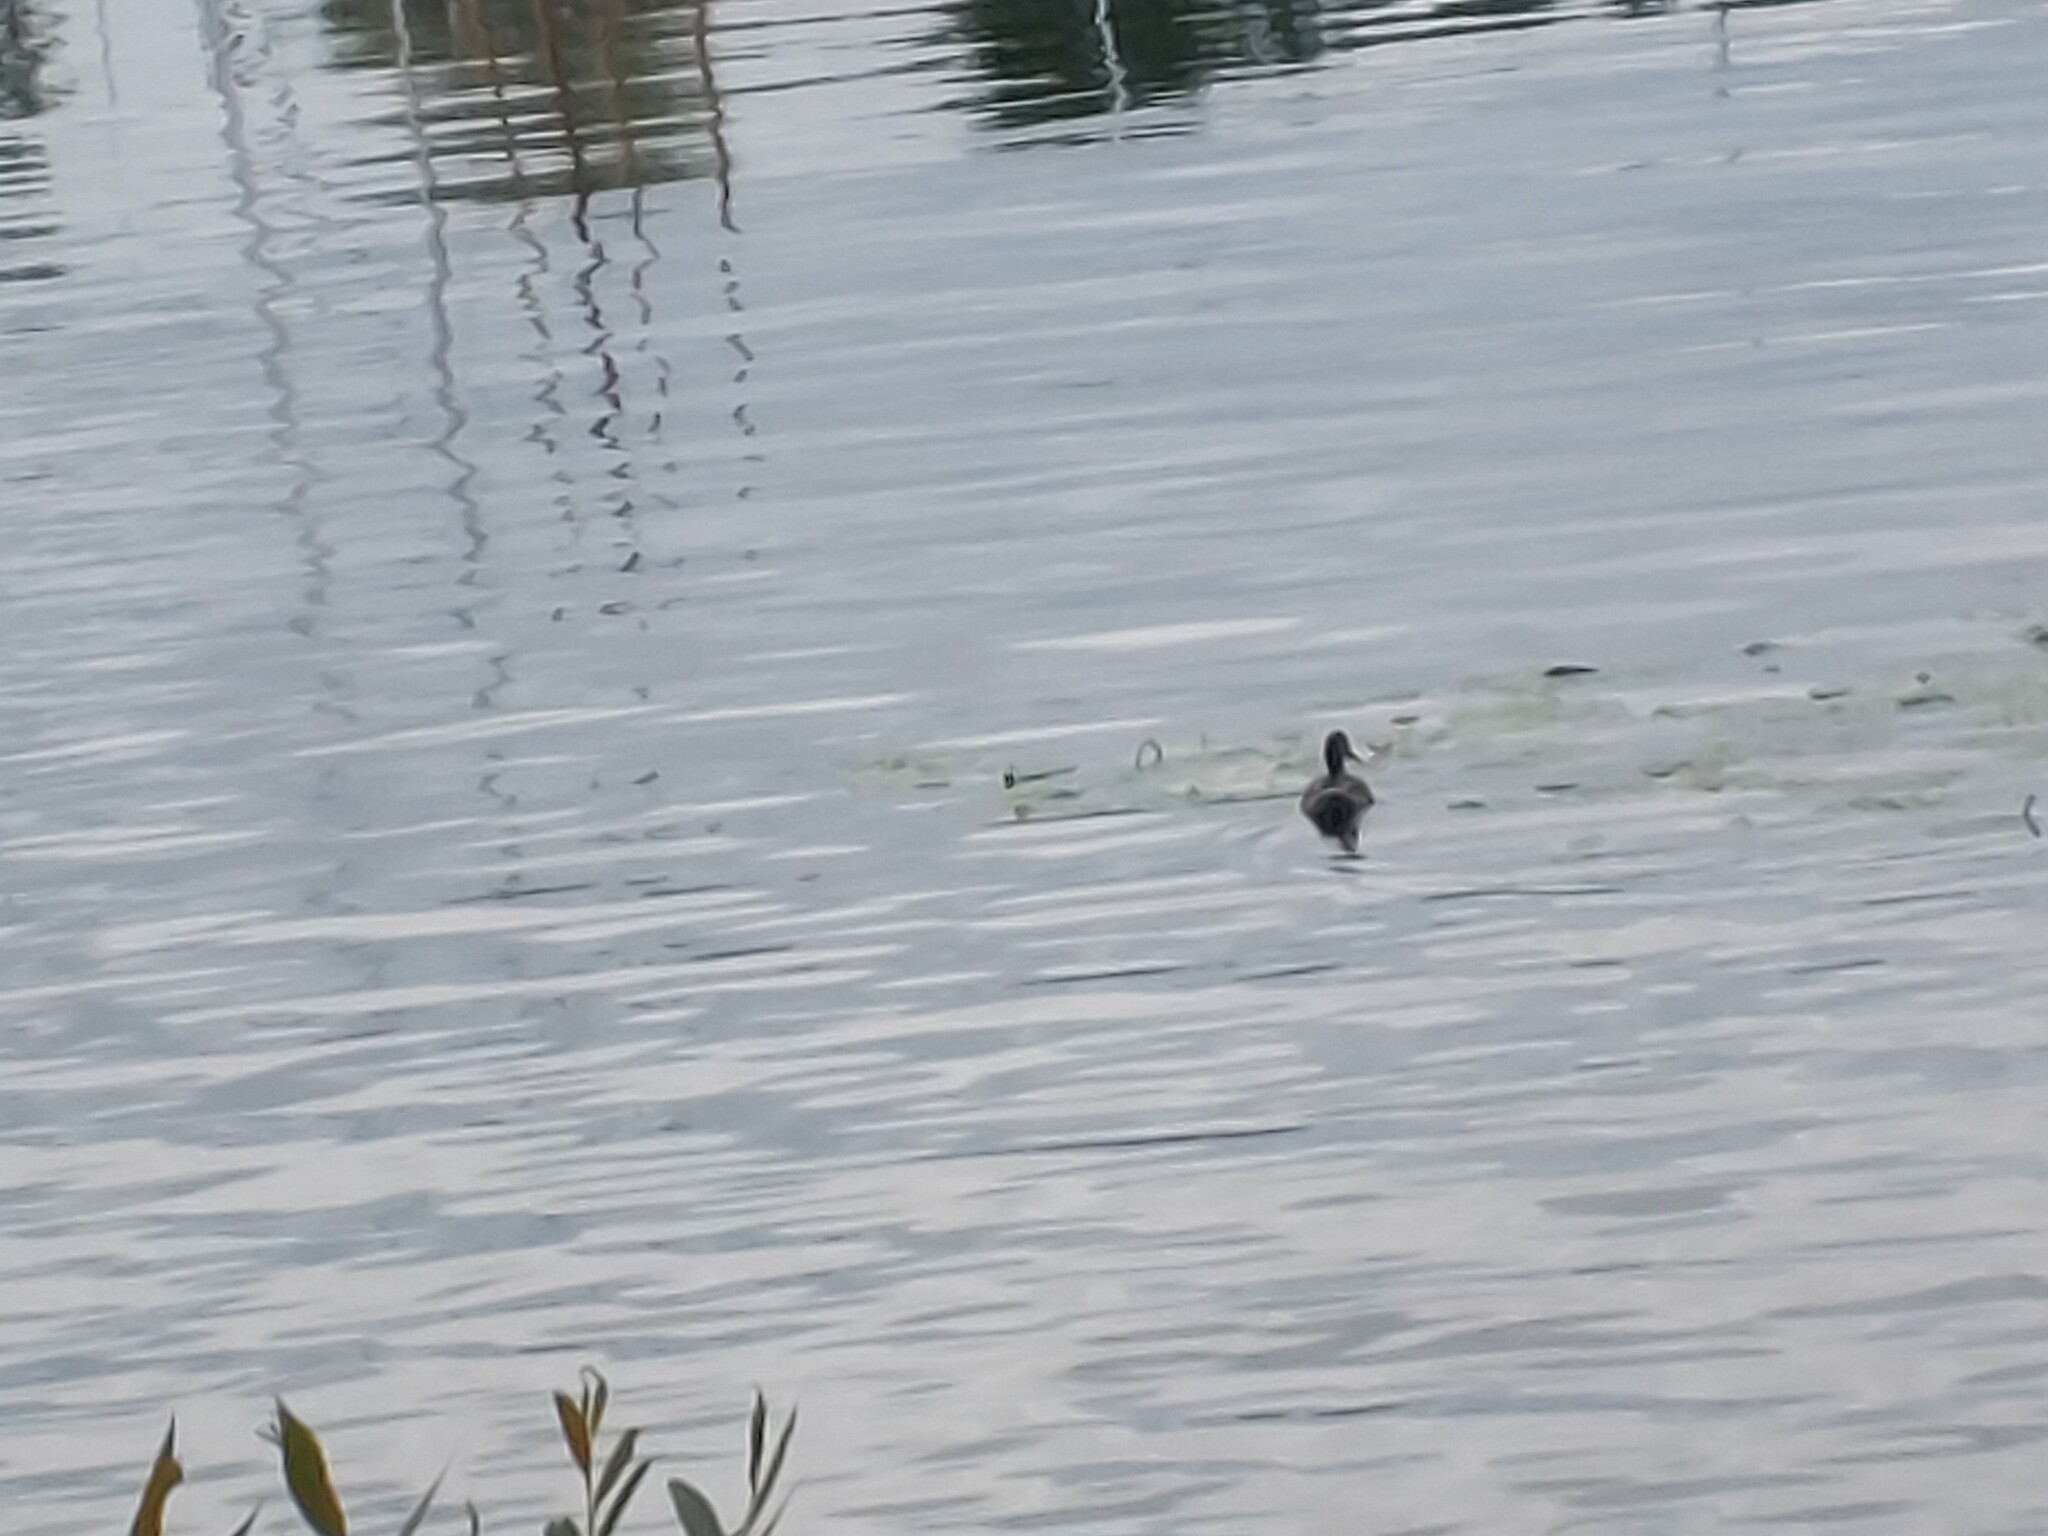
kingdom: Animalia
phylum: Chordata
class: Aves
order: Anseriformes
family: Anatidae
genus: Anas
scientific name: Anas platyrhynchos
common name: Mallard
